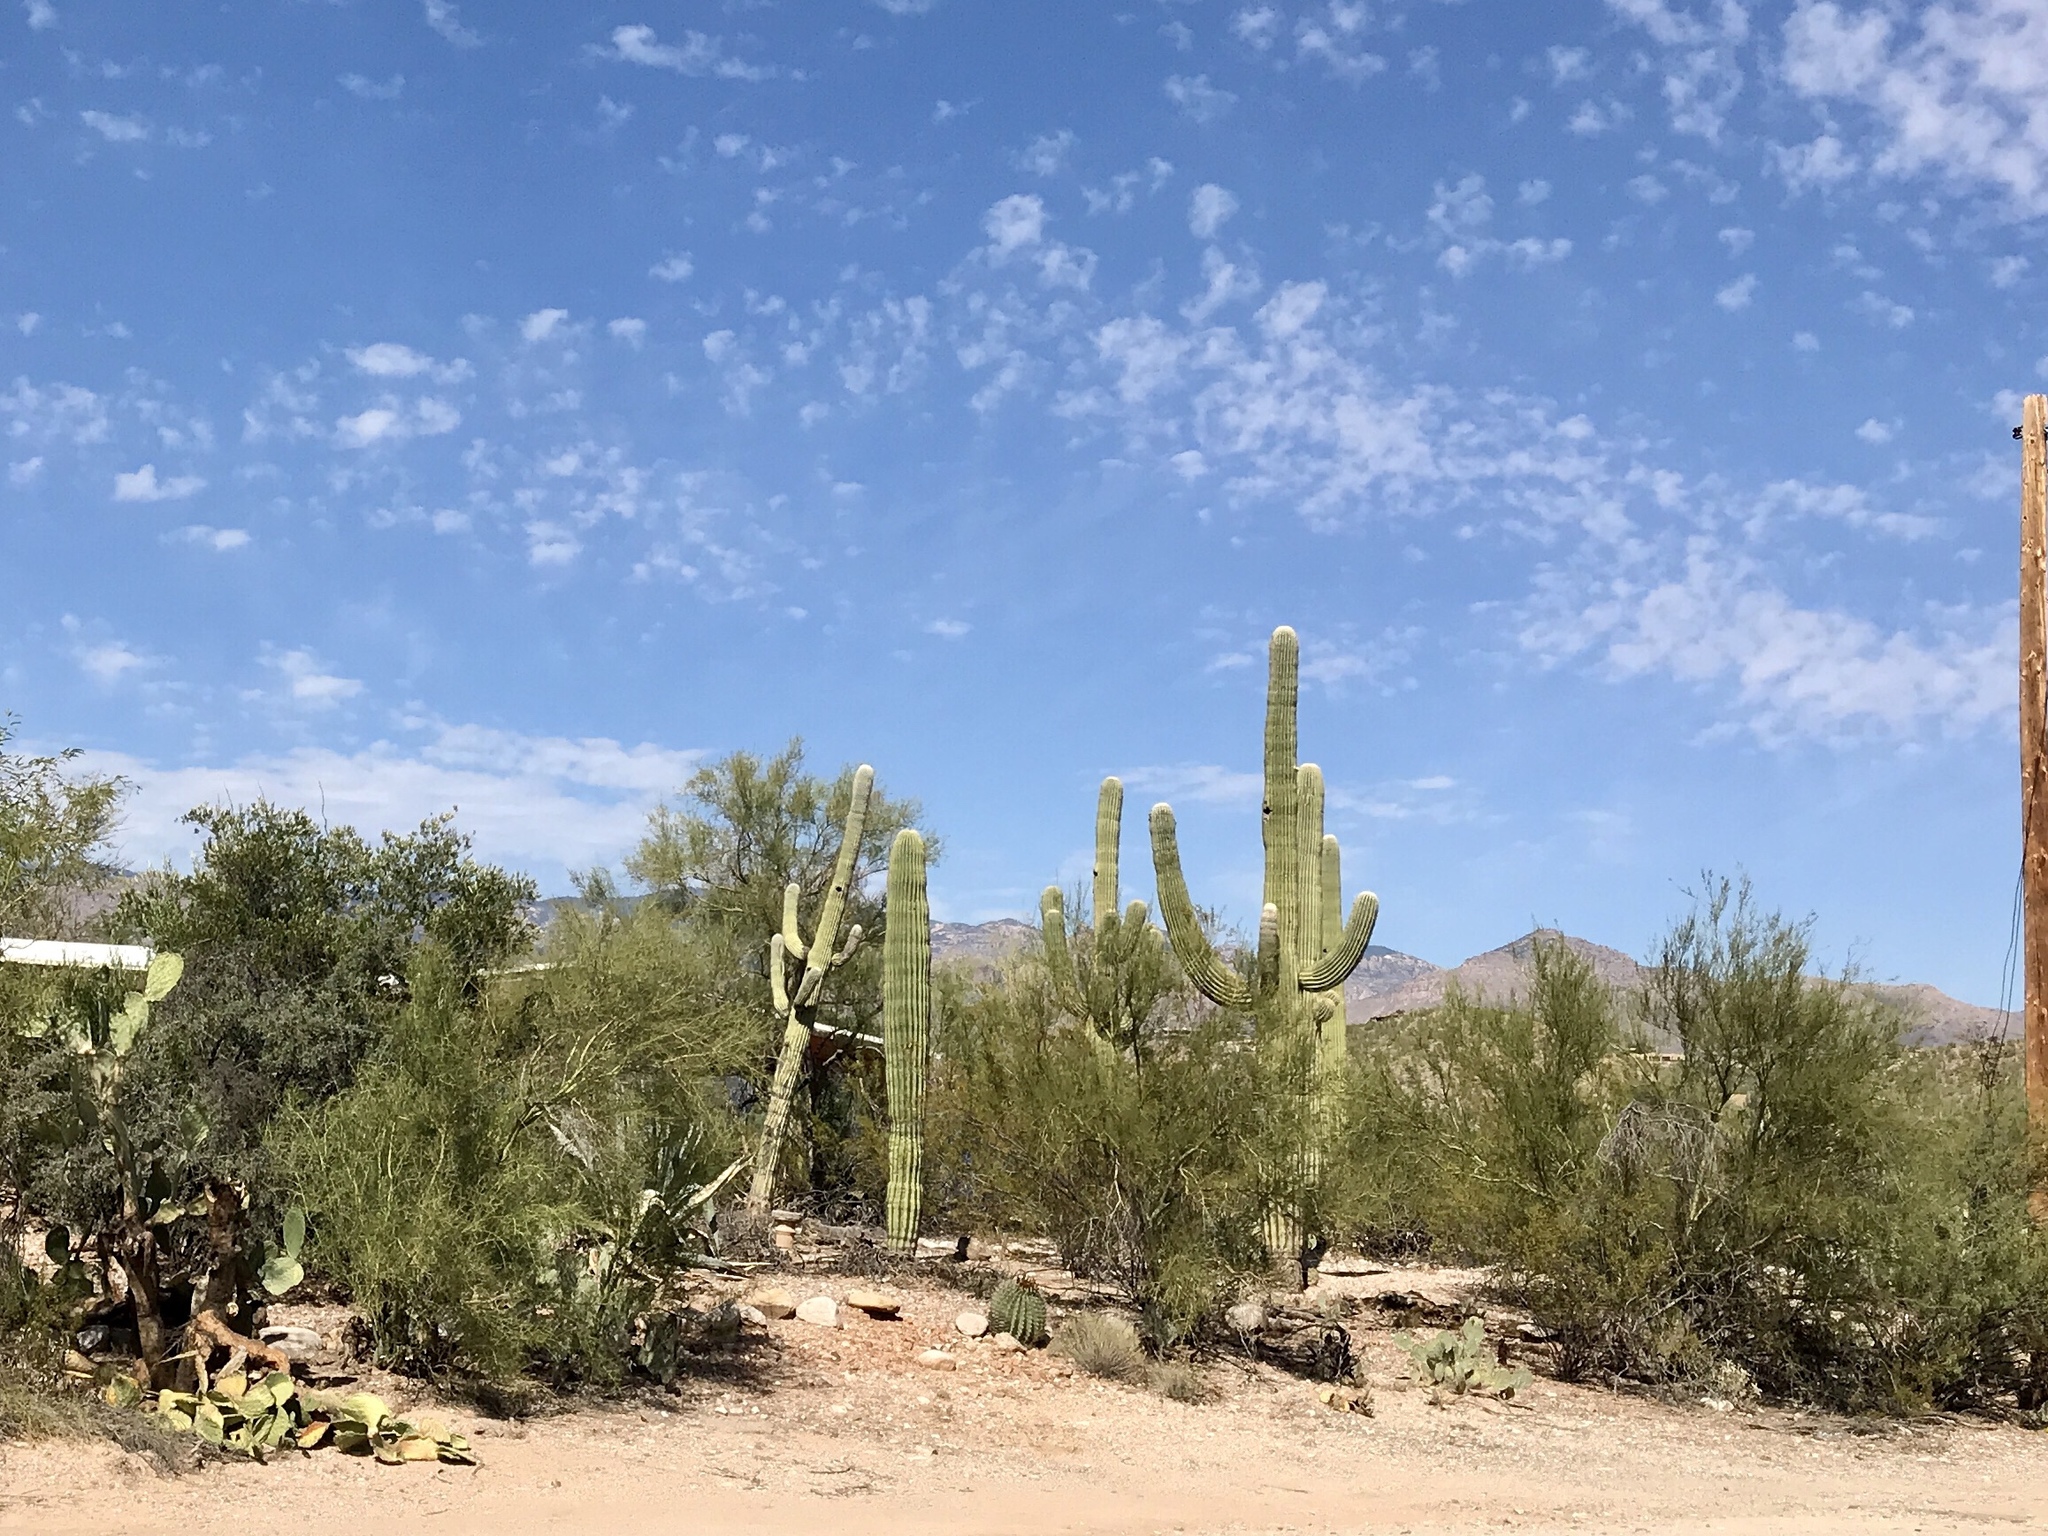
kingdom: Plantae
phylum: Tracheophyta
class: Magnoliopsida
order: Caryophyllales
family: Cactaceae
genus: Carnegiea
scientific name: Carnegiea gigantea
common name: Saguaro
